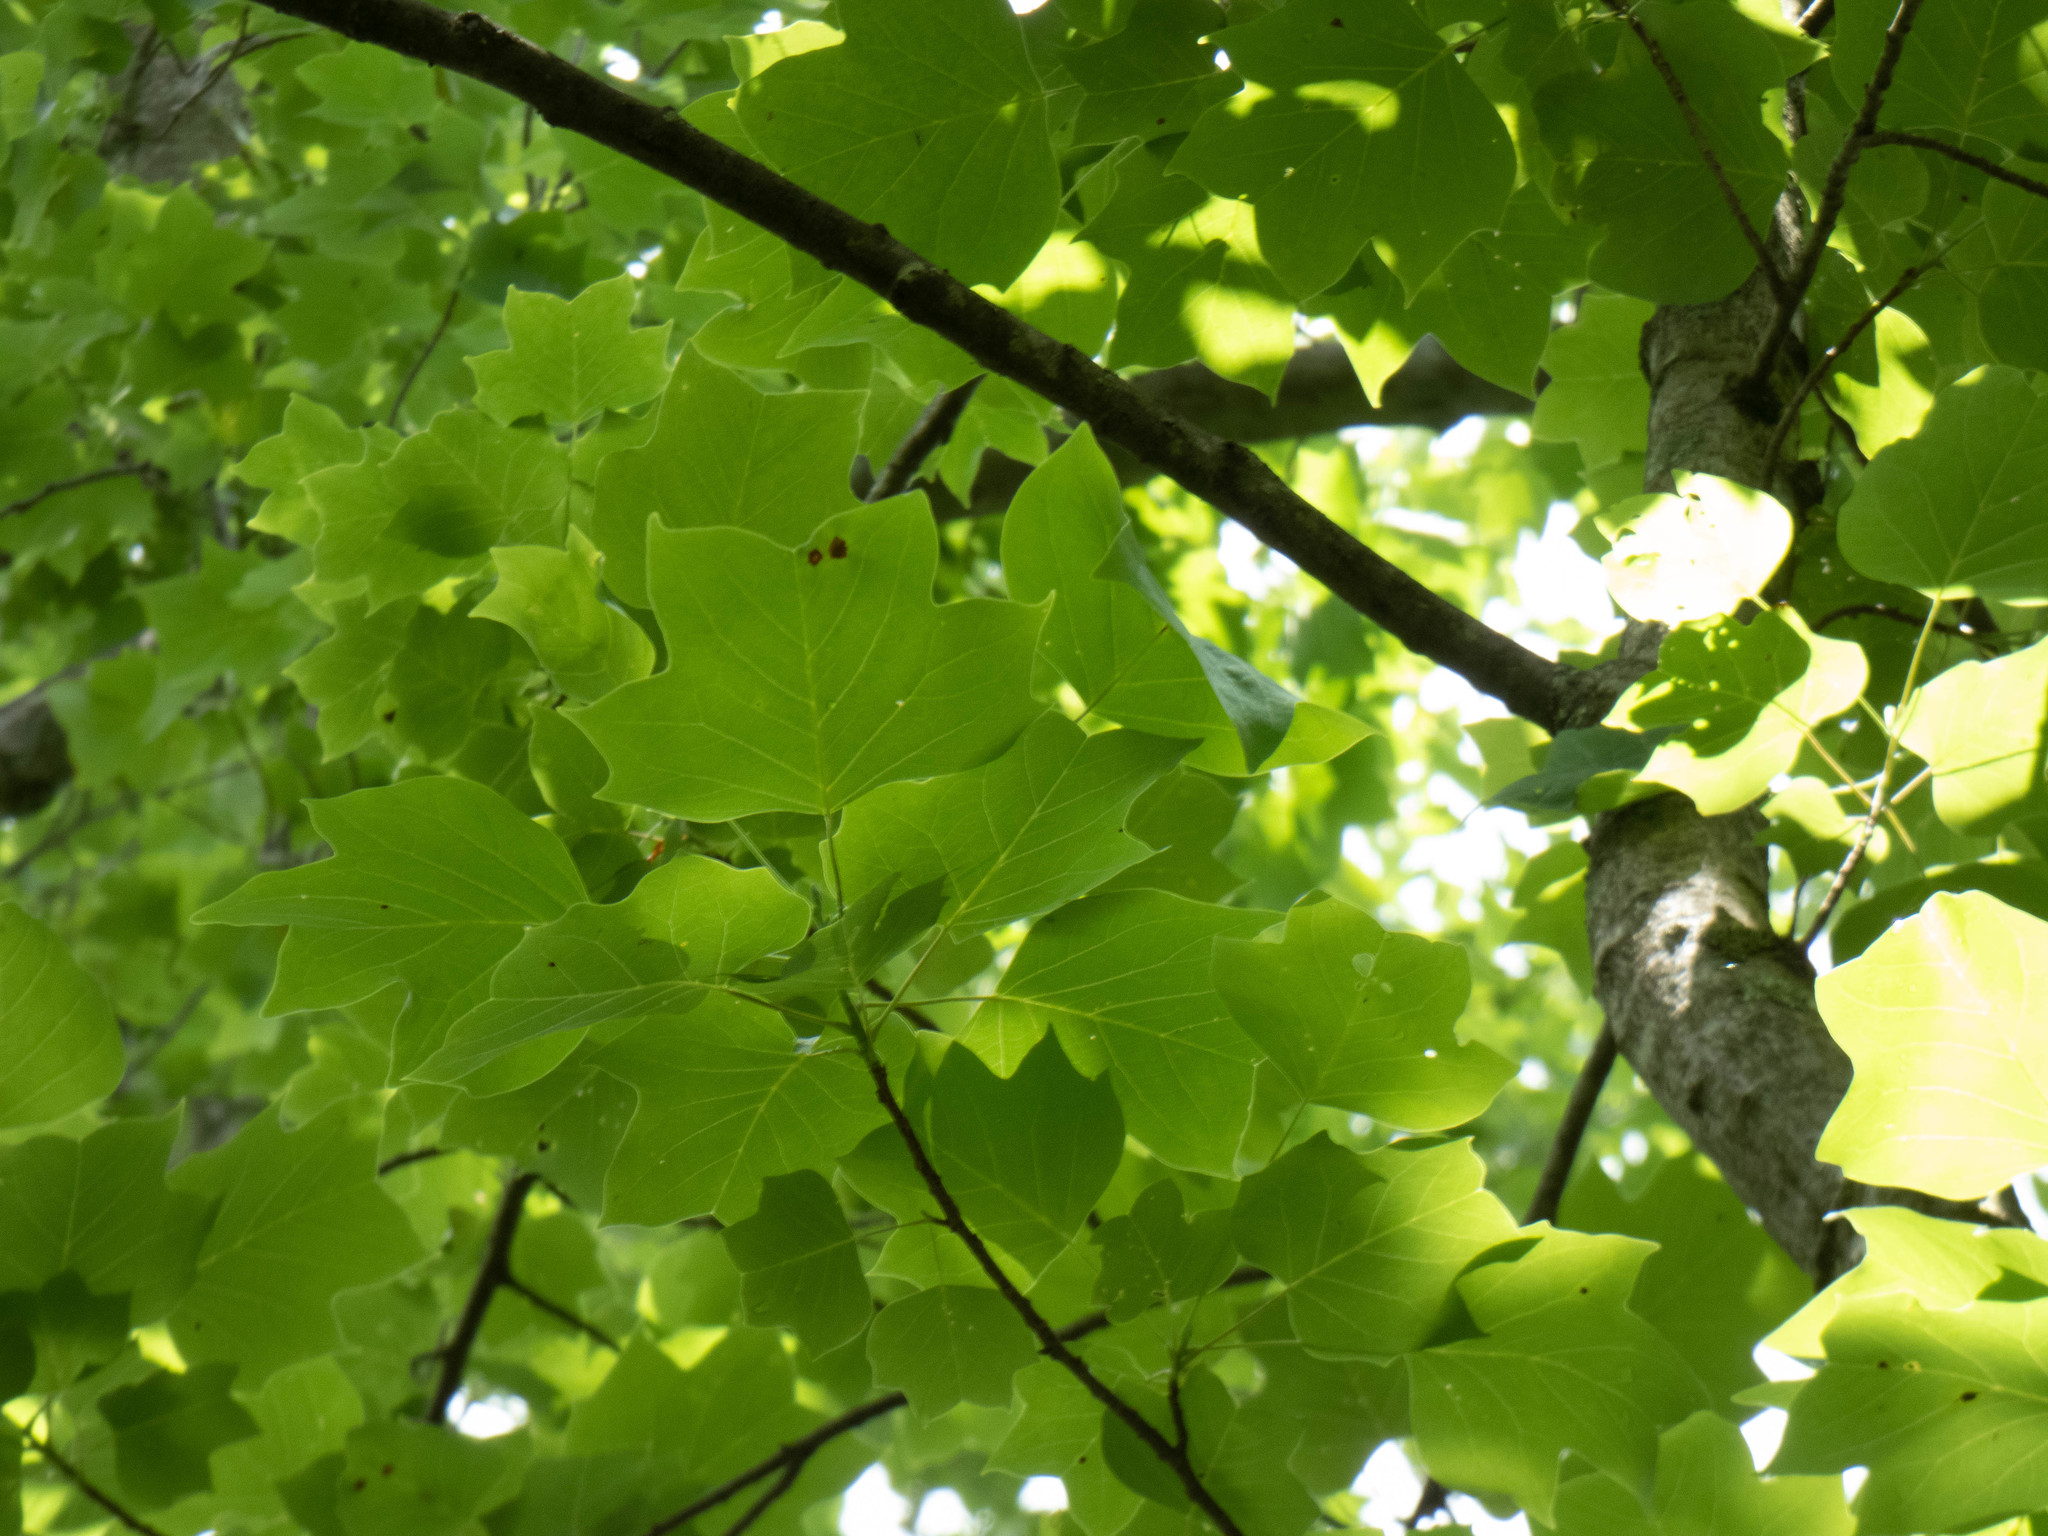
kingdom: Plantae
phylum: Tracheophyta
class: Magnoliopsida
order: Magnoliales
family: Magnoliaceae
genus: Liriodendron
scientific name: Liriodendron tulipifera
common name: Tulip tree
